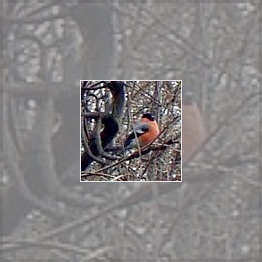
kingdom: Animalia
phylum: Chordata
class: Aves
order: Passeriformes
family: Fringillidae
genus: Pyrrhula
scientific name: Pyrrhula pyrrhula
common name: Eurasian bullfinch
